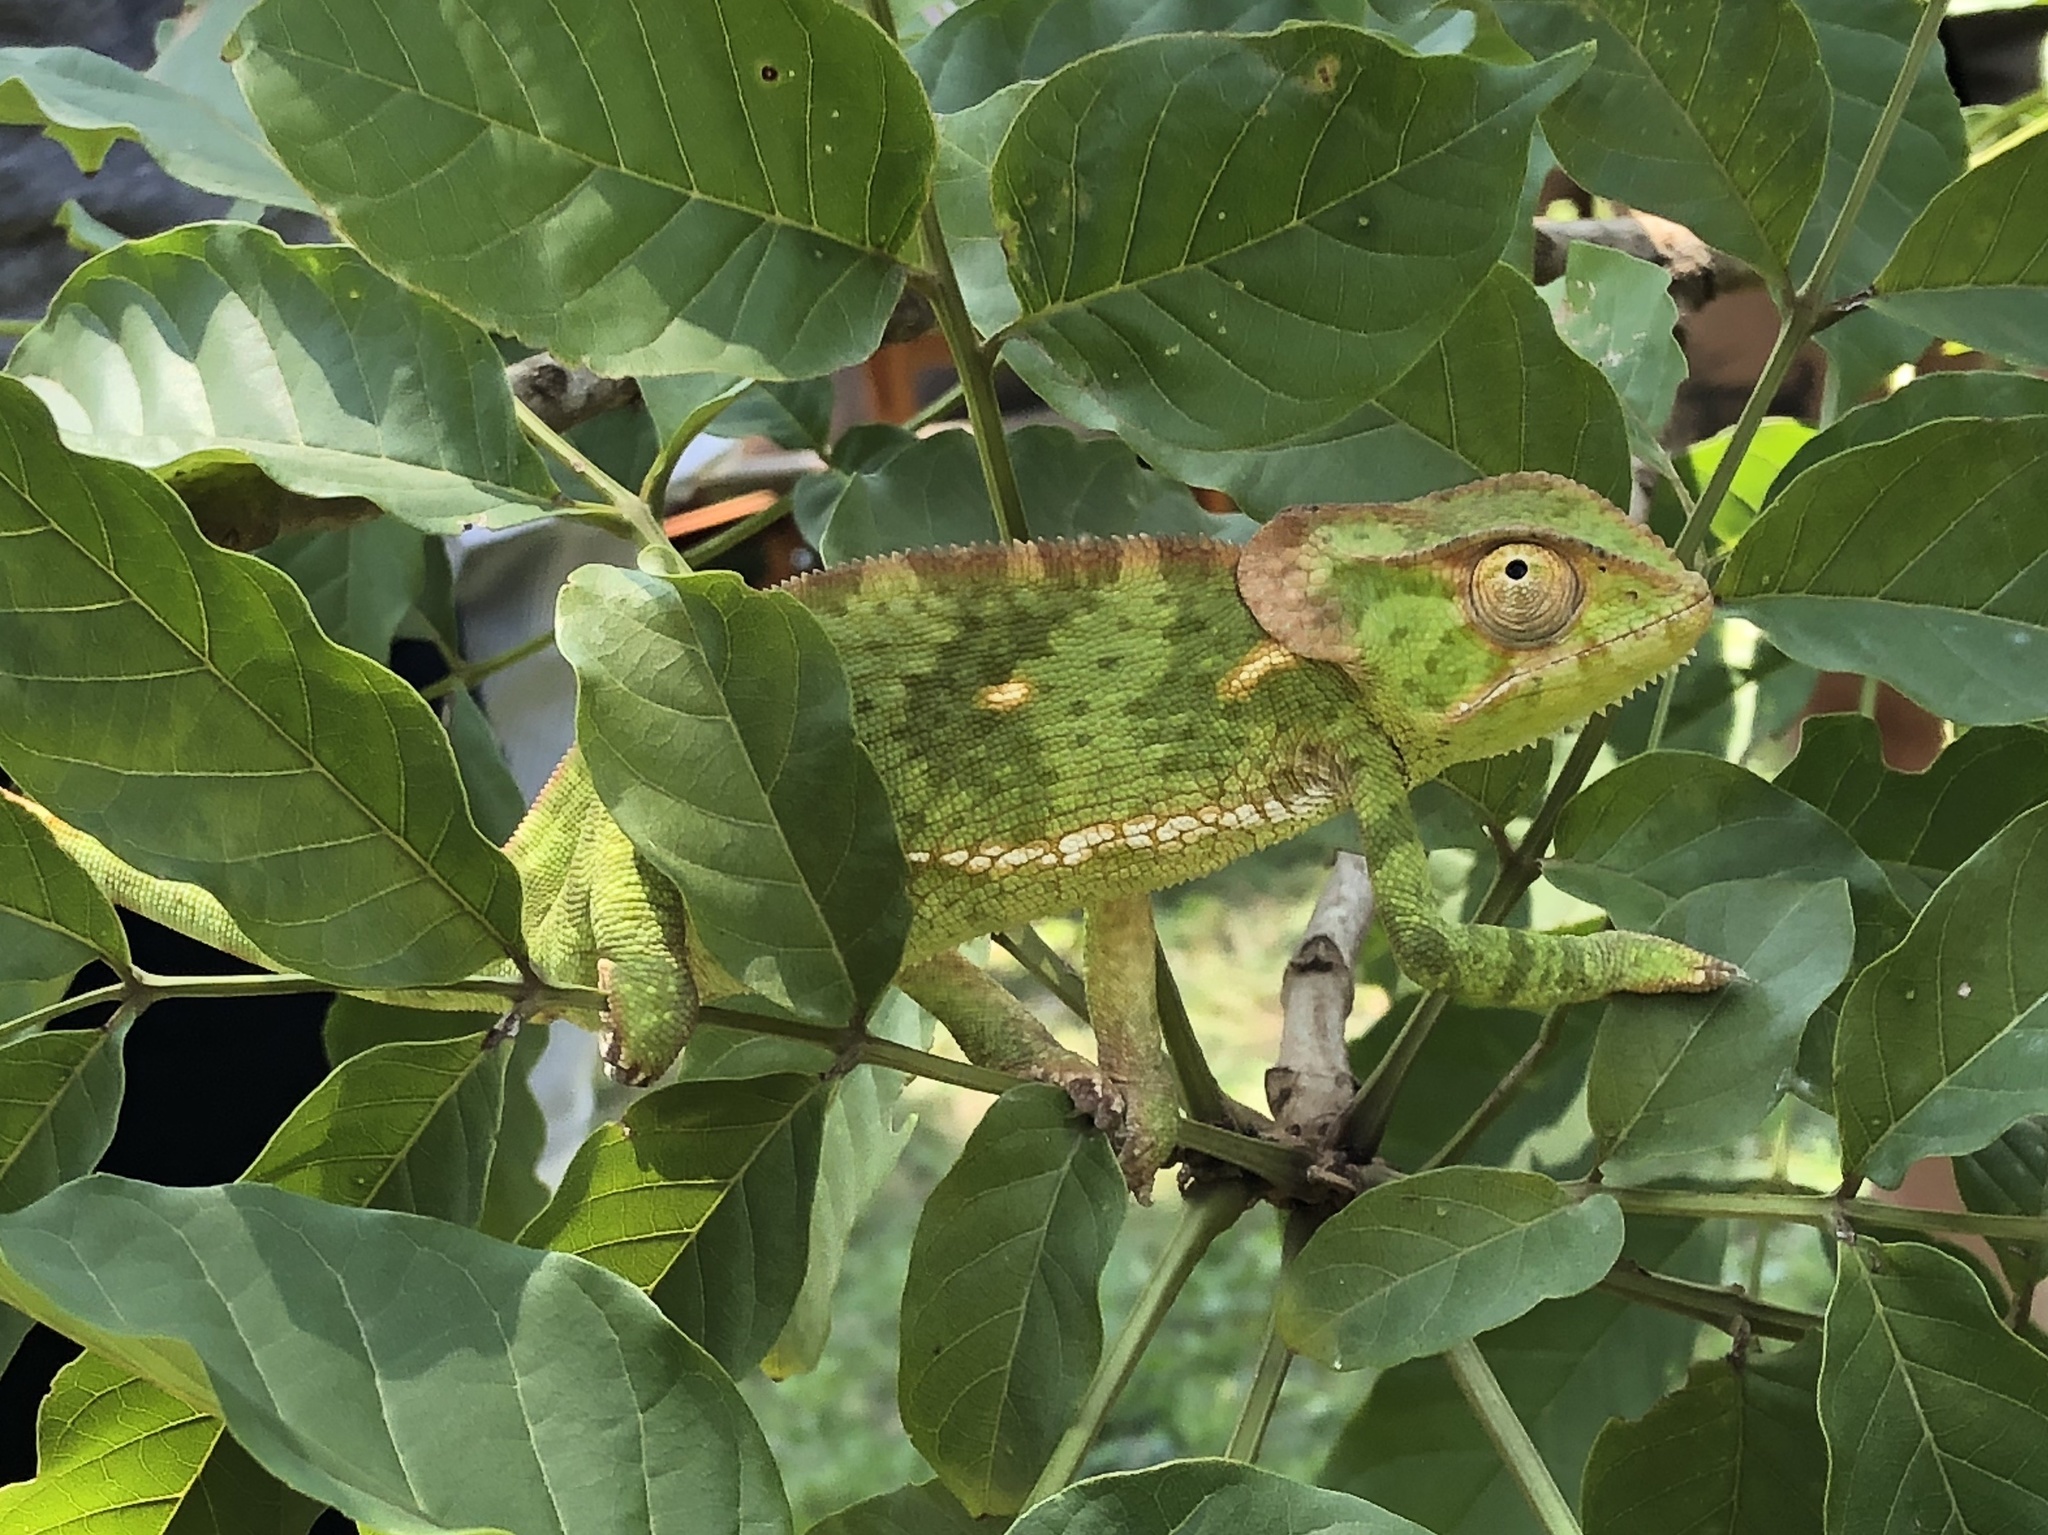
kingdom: Animalia
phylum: Chordata
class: Squamata
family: Chamaeleonidae
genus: Chamaeleo
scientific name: Chamaeleo dilepis
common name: Flapneck chameleon
